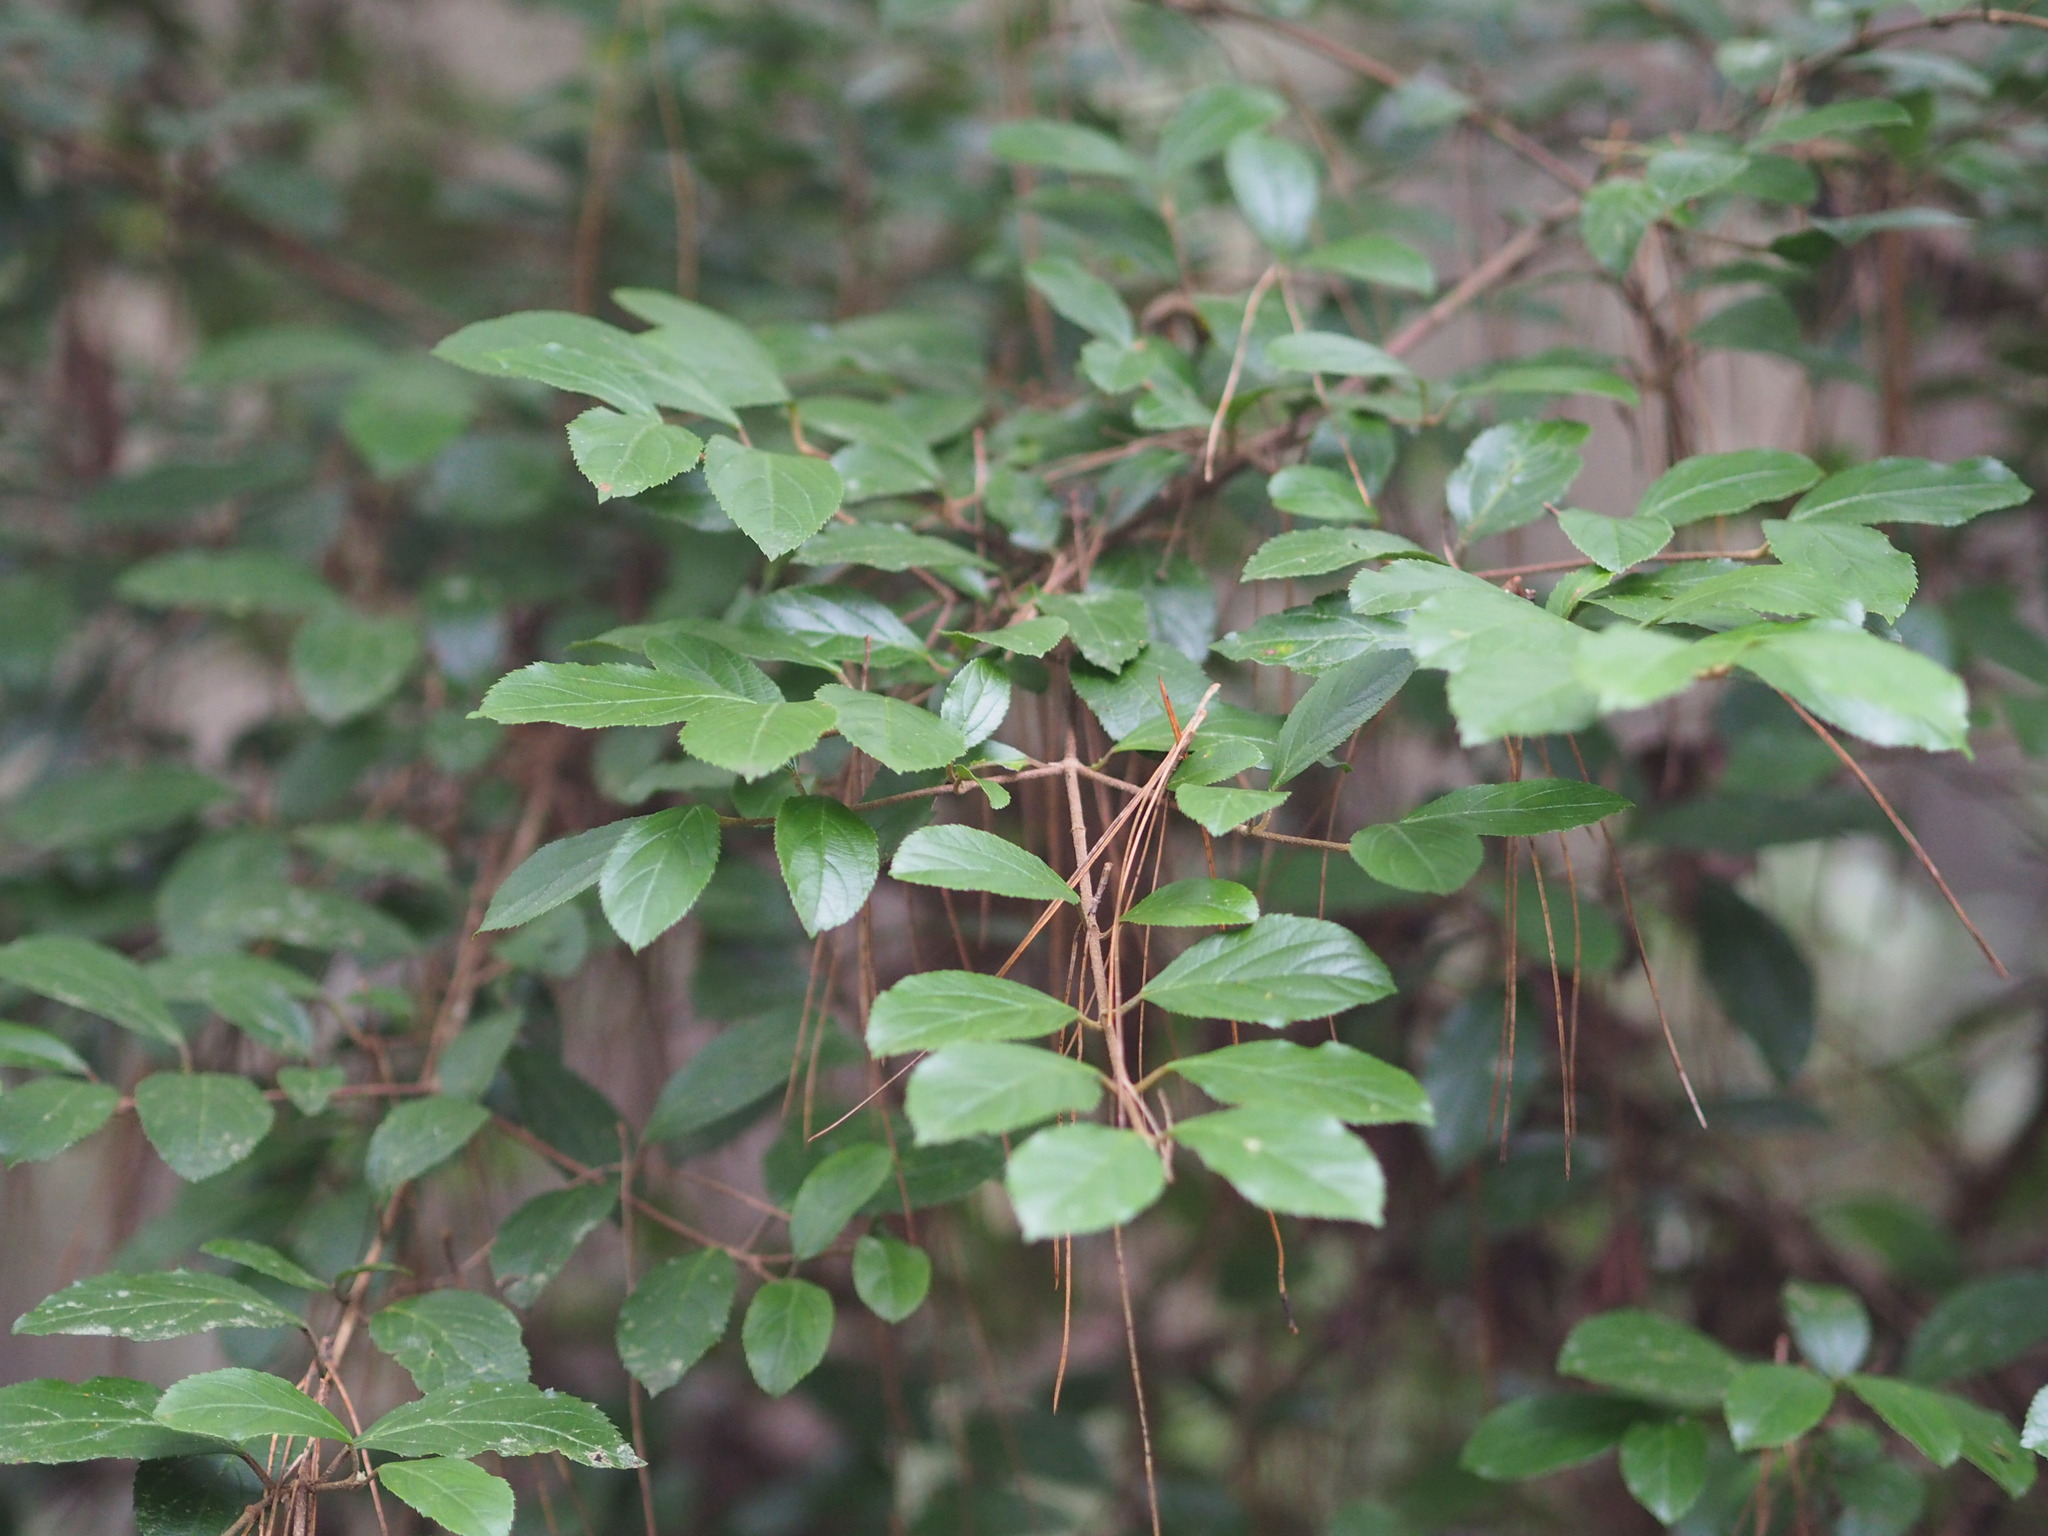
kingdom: Plantae
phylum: Tracheophyta
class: Magnoliopsida
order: Dipsacales
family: Viburnaceae
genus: Viburnum
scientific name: Viburnum taitoense
